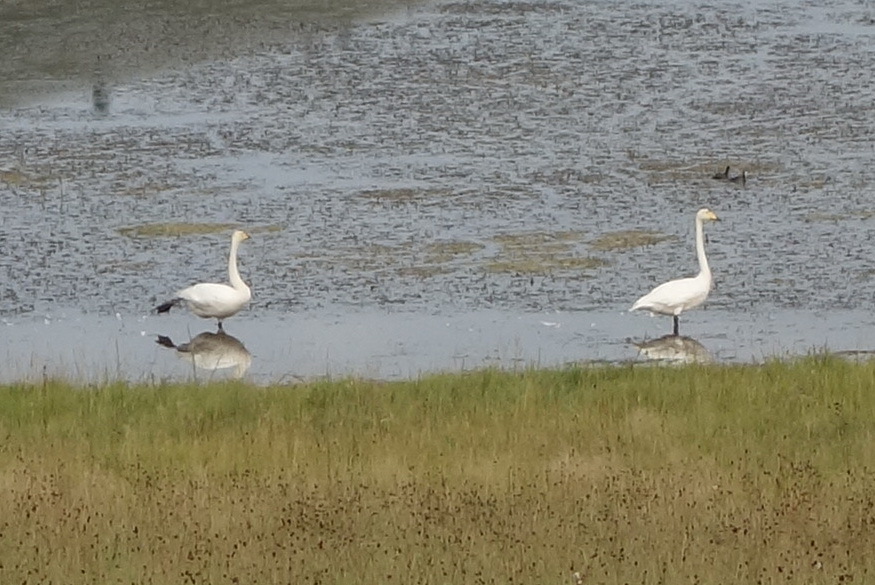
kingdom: Animalia
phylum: Chordata
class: Aves
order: Anseriformes
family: Anatidae
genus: Cygnus
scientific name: Cygnus cygnus
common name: Whooper swan
